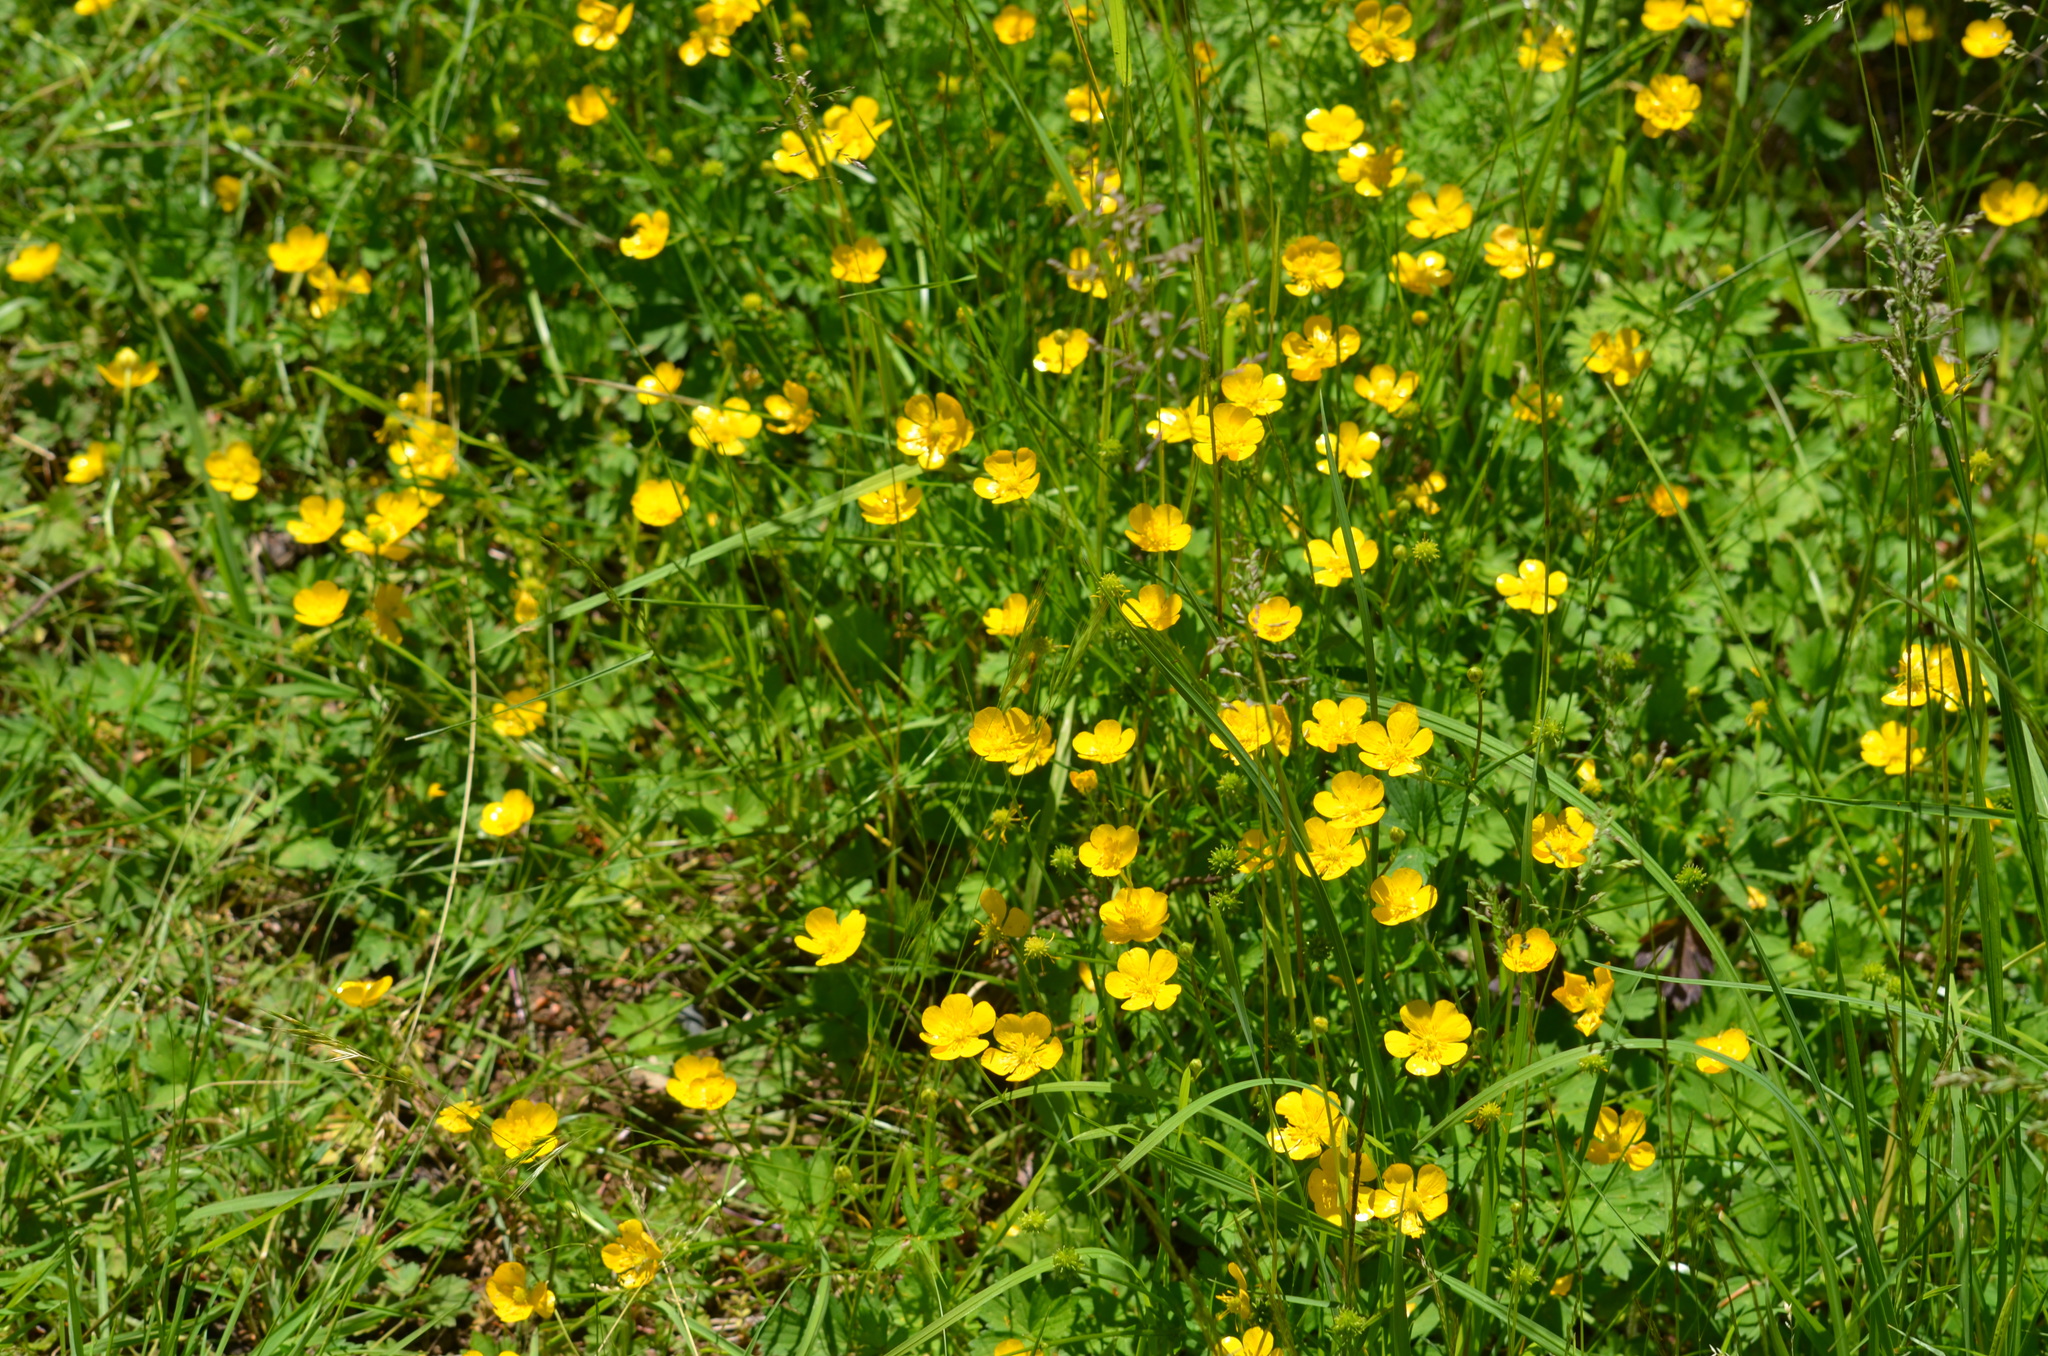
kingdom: Plantae
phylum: Tracheophyta
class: Magnoliopsida
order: Ranunculales
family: Ranunculaceae
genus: Ranunculus
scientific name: Ranunculus repens
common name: Creeping buttercup
